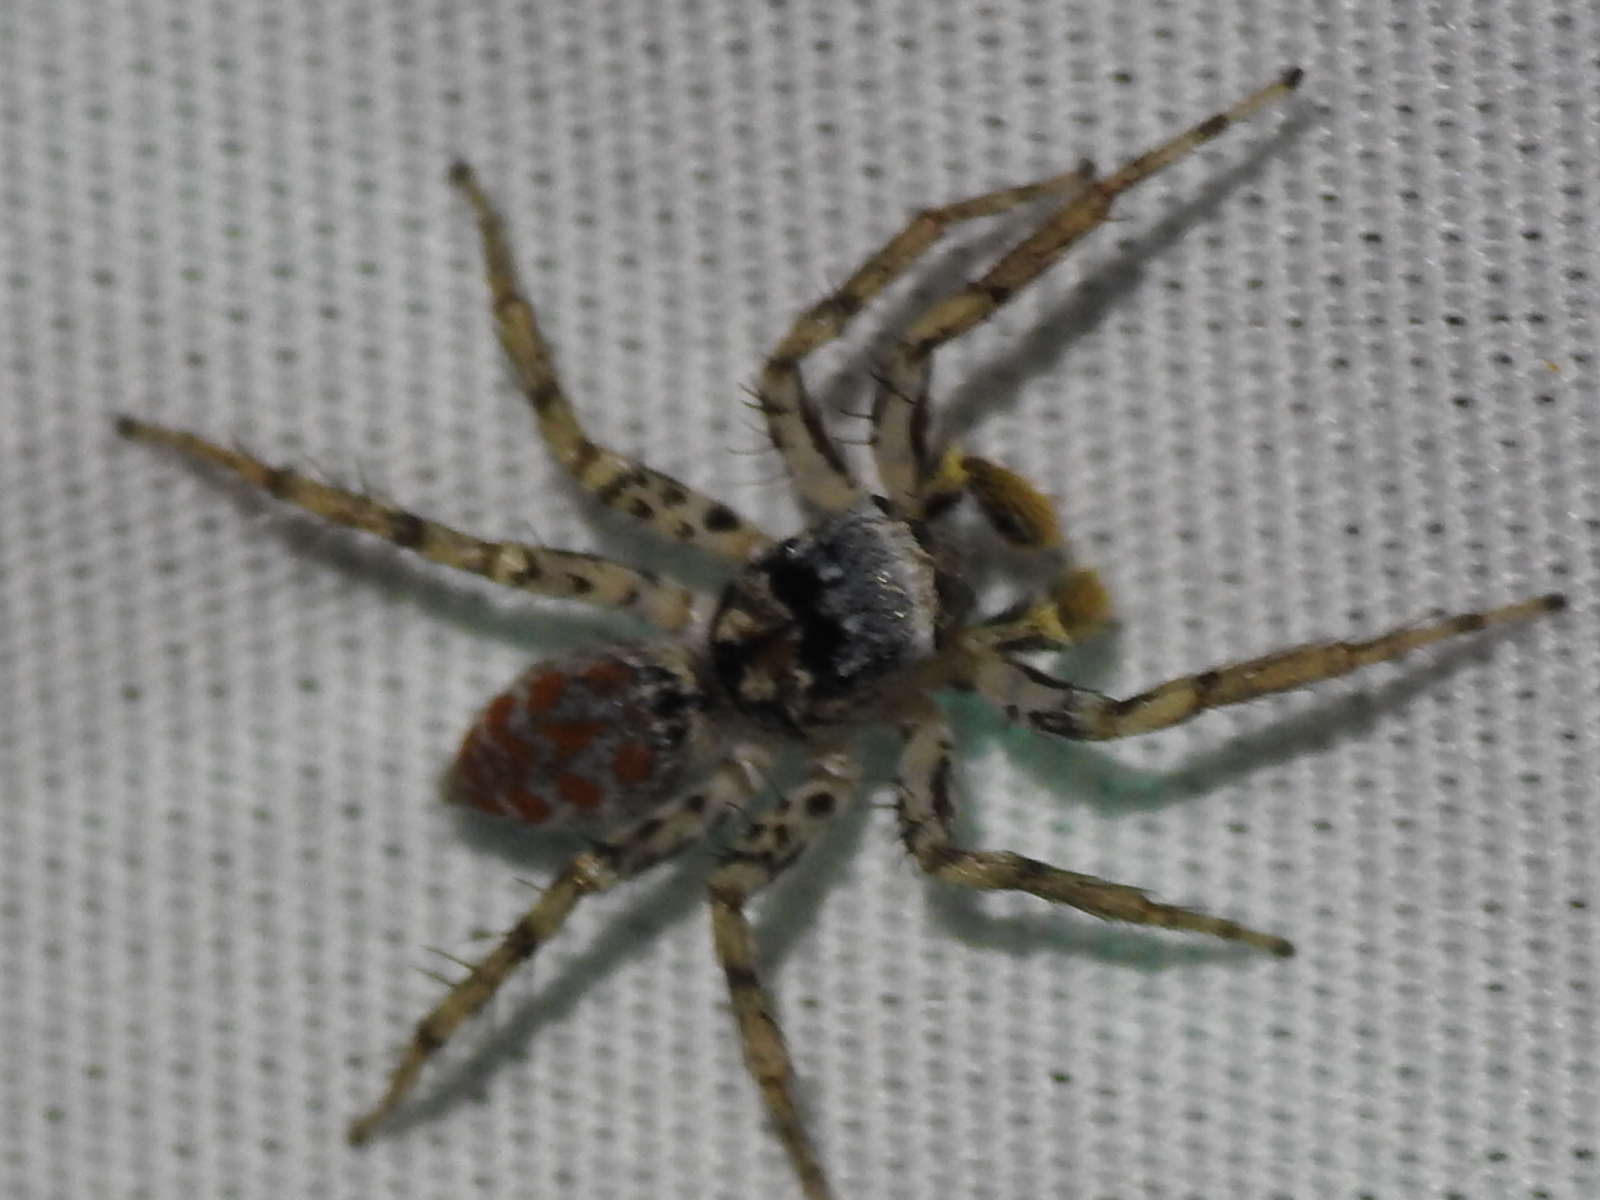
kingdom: Animalia
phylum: Arthropoda
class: Arachnida
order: Araneae
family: Salticidae
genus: Maevia
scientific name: Maevia inclemens
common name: Dimorphic jumper
